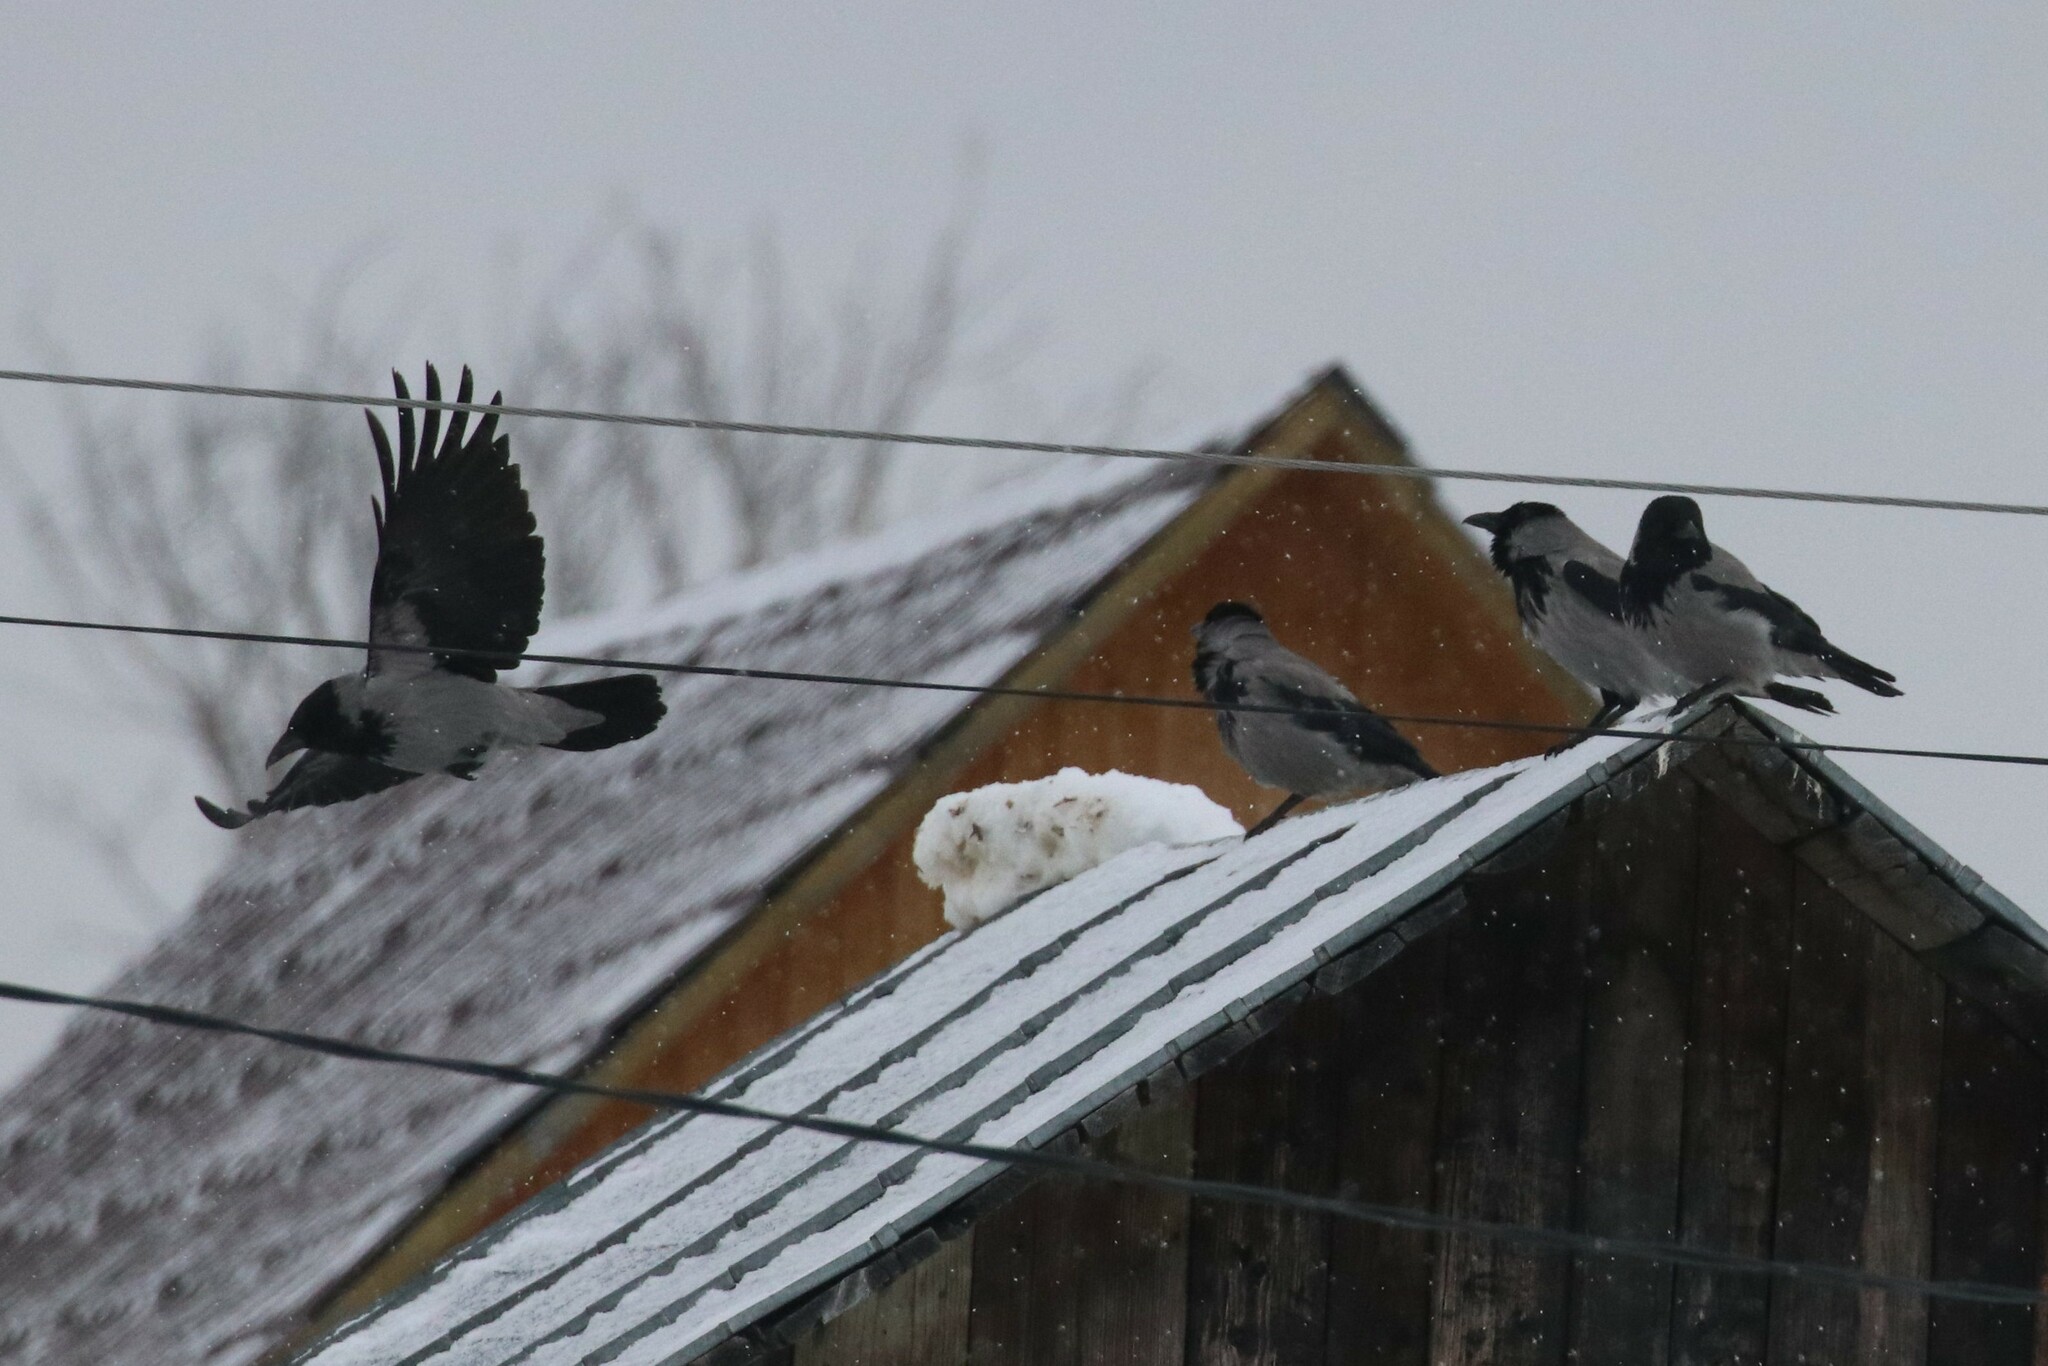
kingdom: Animalia
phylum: Chordata
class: Aves
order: Passeriformes
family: Corvidae
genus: Corvus
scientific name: Corvus cornix
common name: Hooded crow
